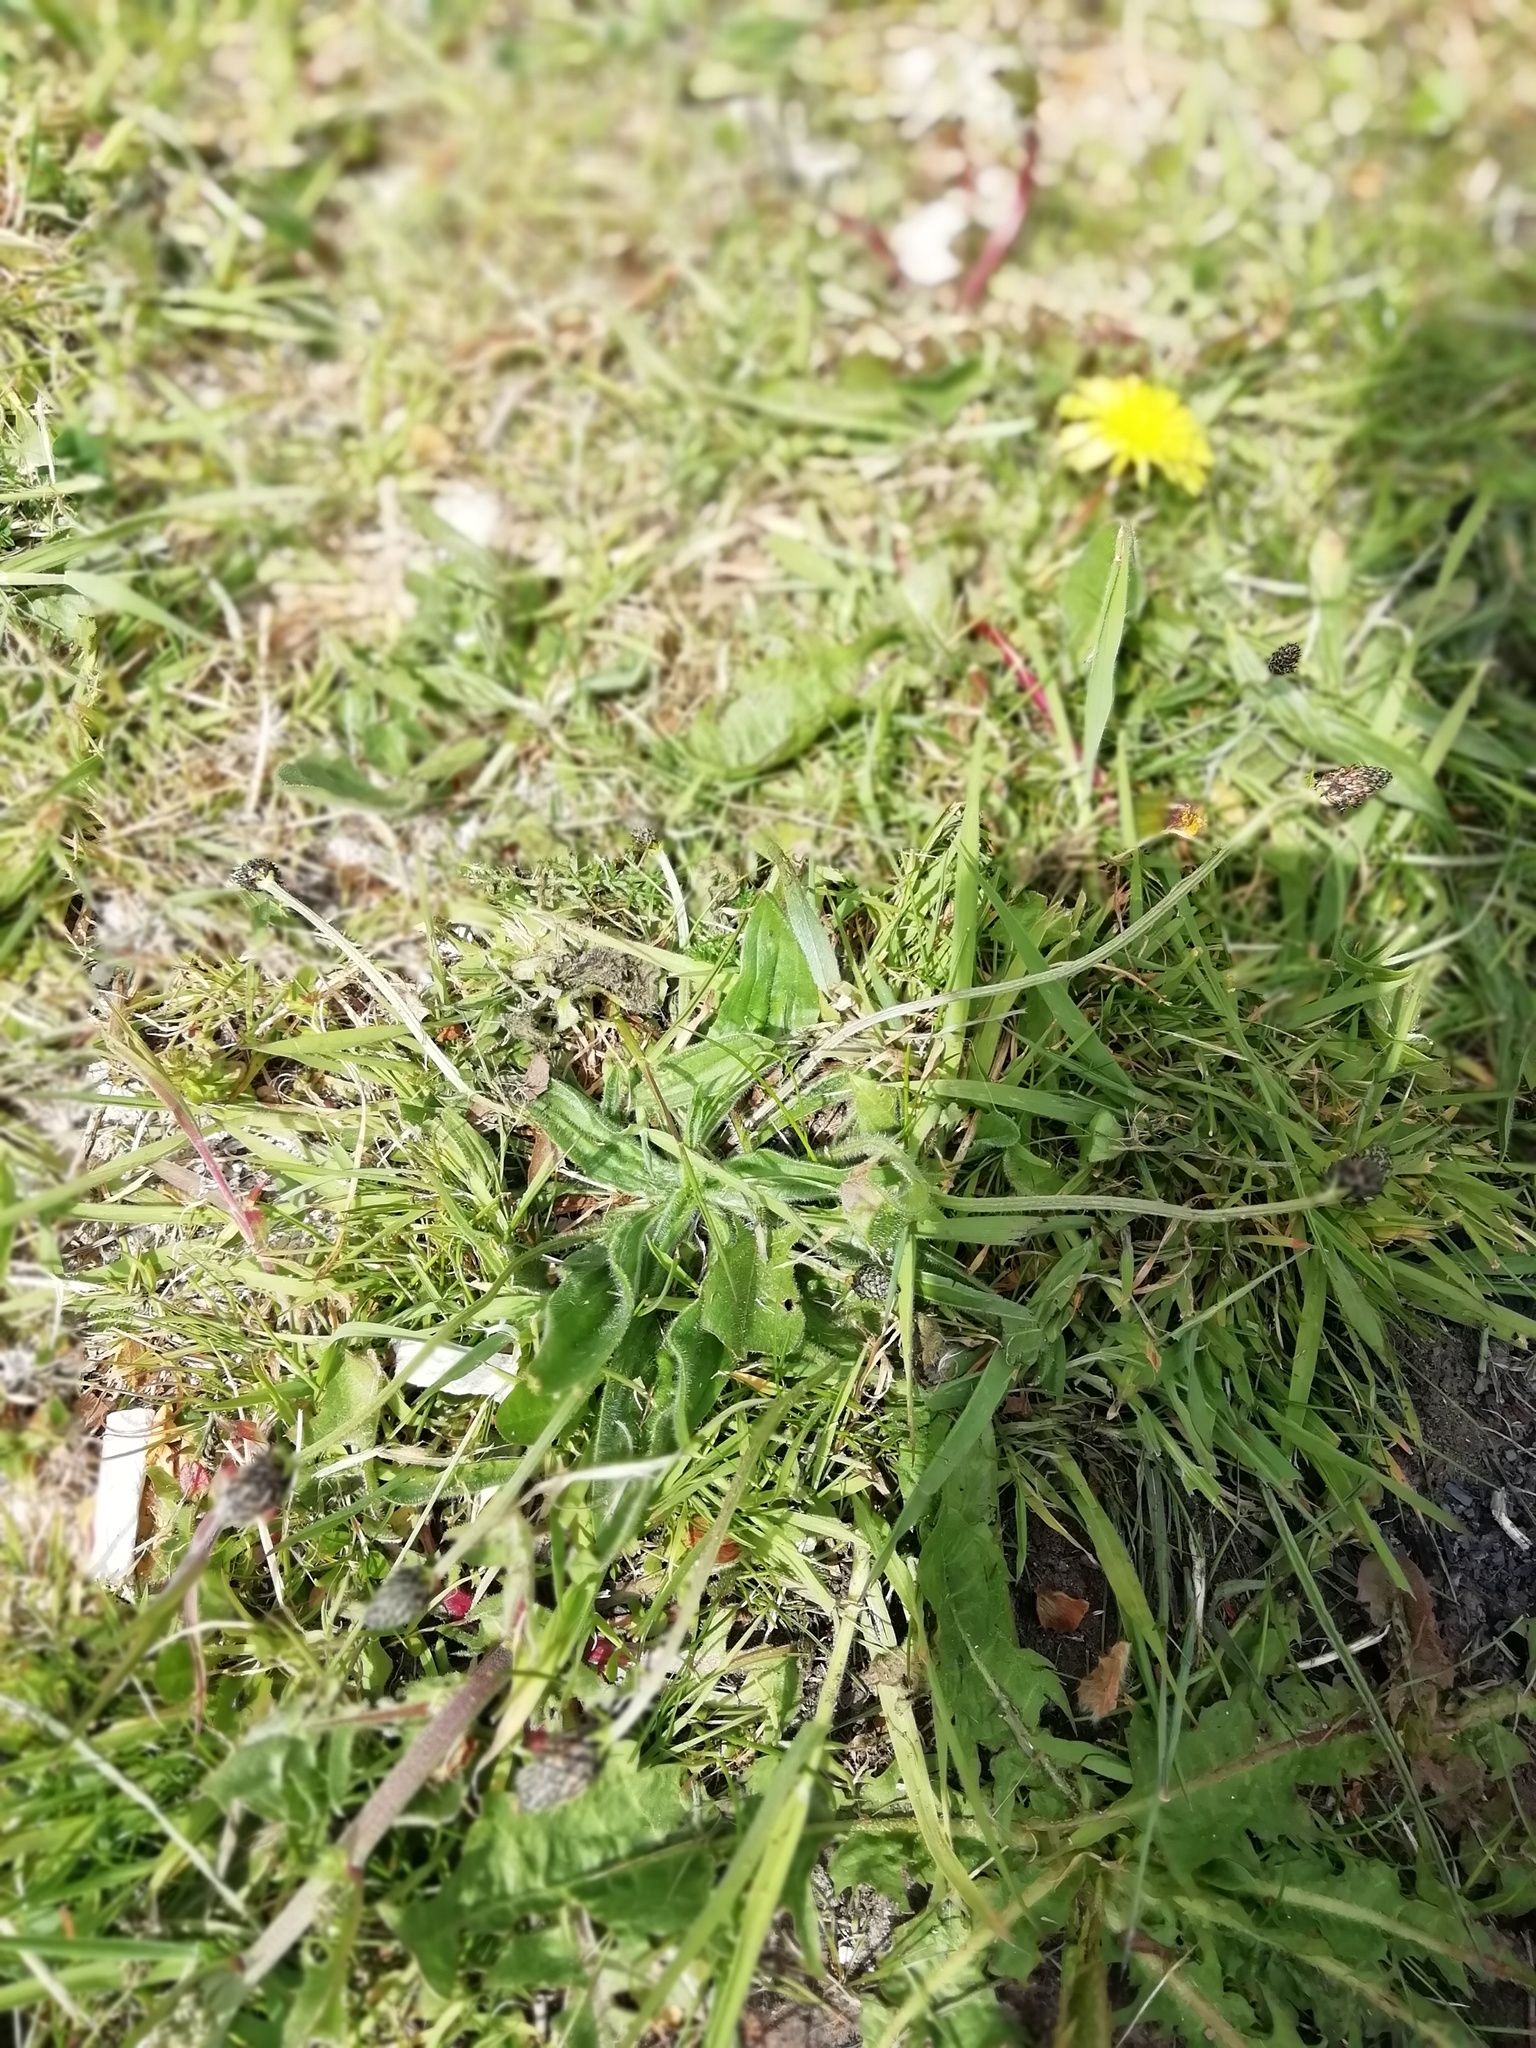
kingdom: Plantae
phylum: Tracheophyta
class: Magnoliopsida
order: Lamiales
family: Plantaginaceae
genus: Plantago
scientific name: Plantago lanceolata
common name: Ribwort plantain
